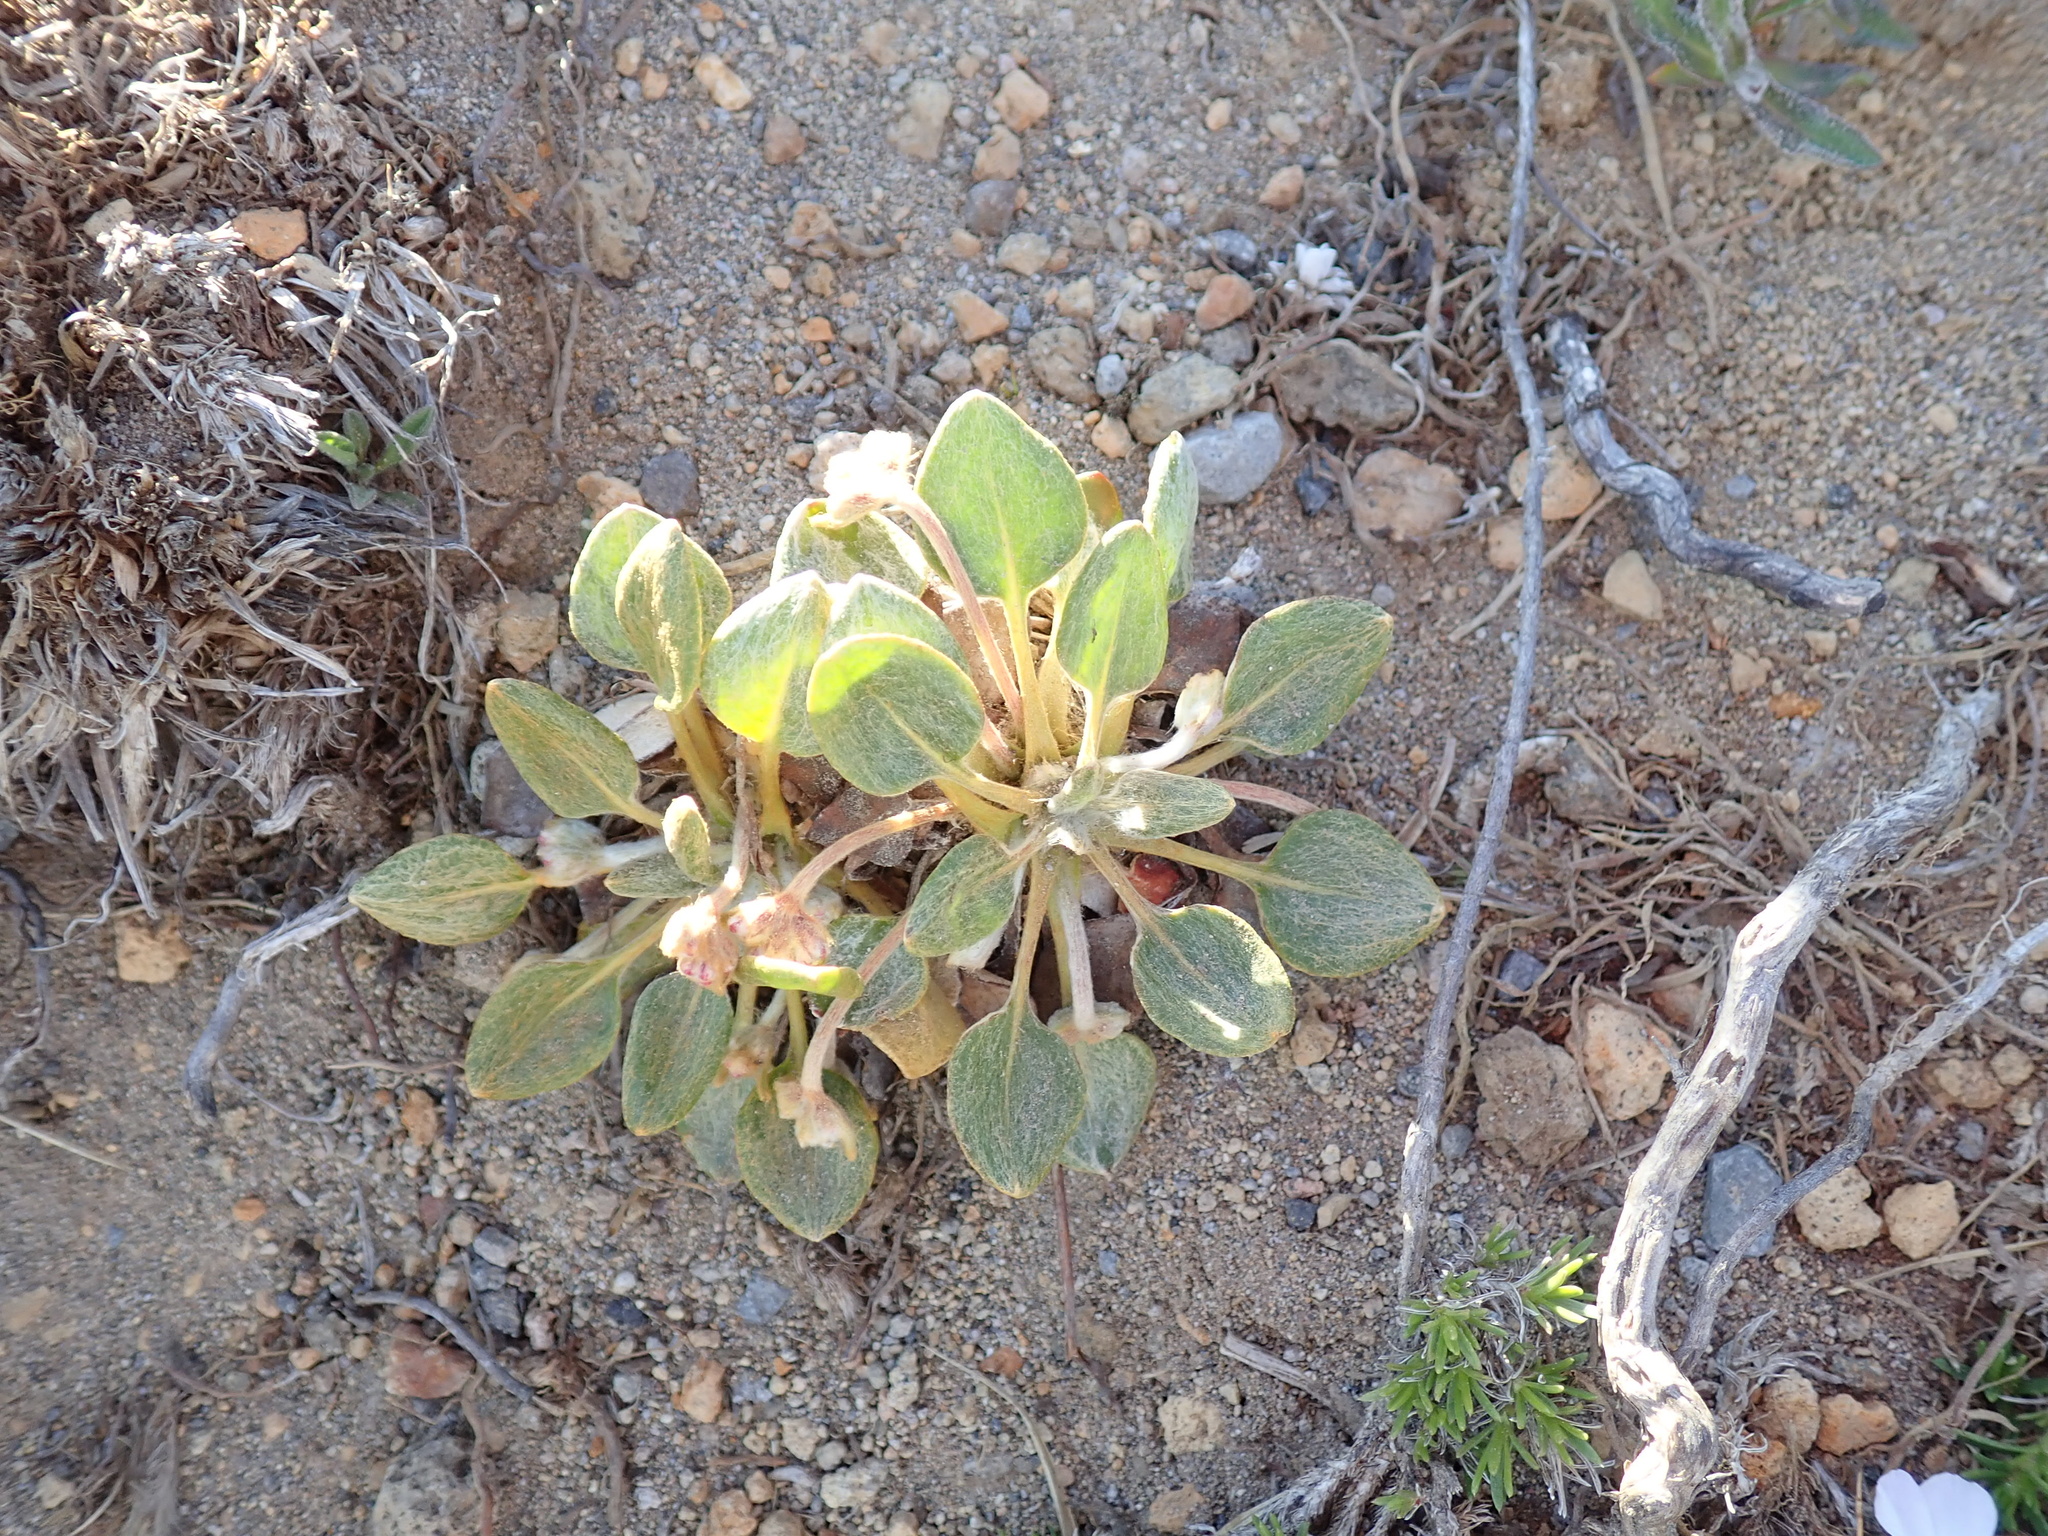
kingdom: Plantae
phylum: Tracheophyta
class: Magnoliopsida
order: Caryophyllales
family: Polygonaceae
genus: Eriogonum
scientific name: Eriogonum pyrolifolium
